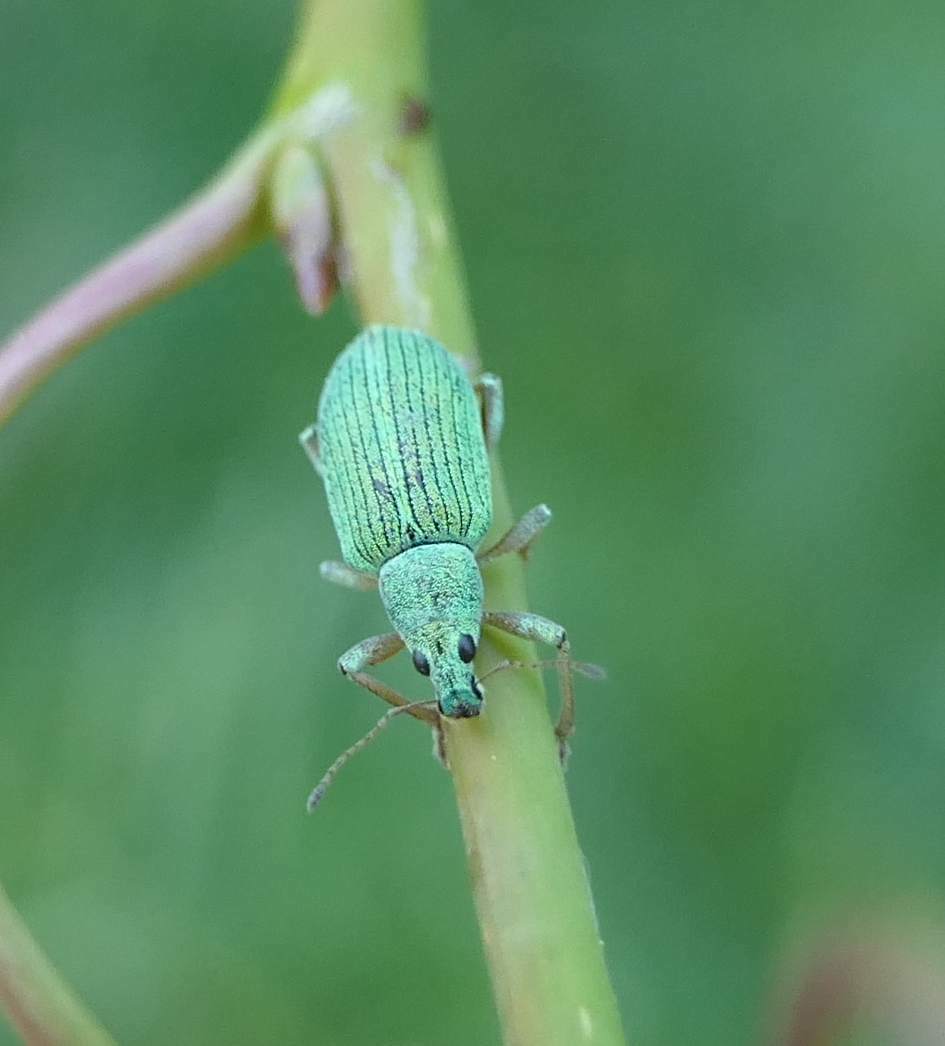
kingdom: Animalia
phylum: Arthropoda
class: Insecta
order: Coleoptera
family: Curculionidae
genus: Polydrusus
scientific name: Polydrusus formosus
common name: Weevil
